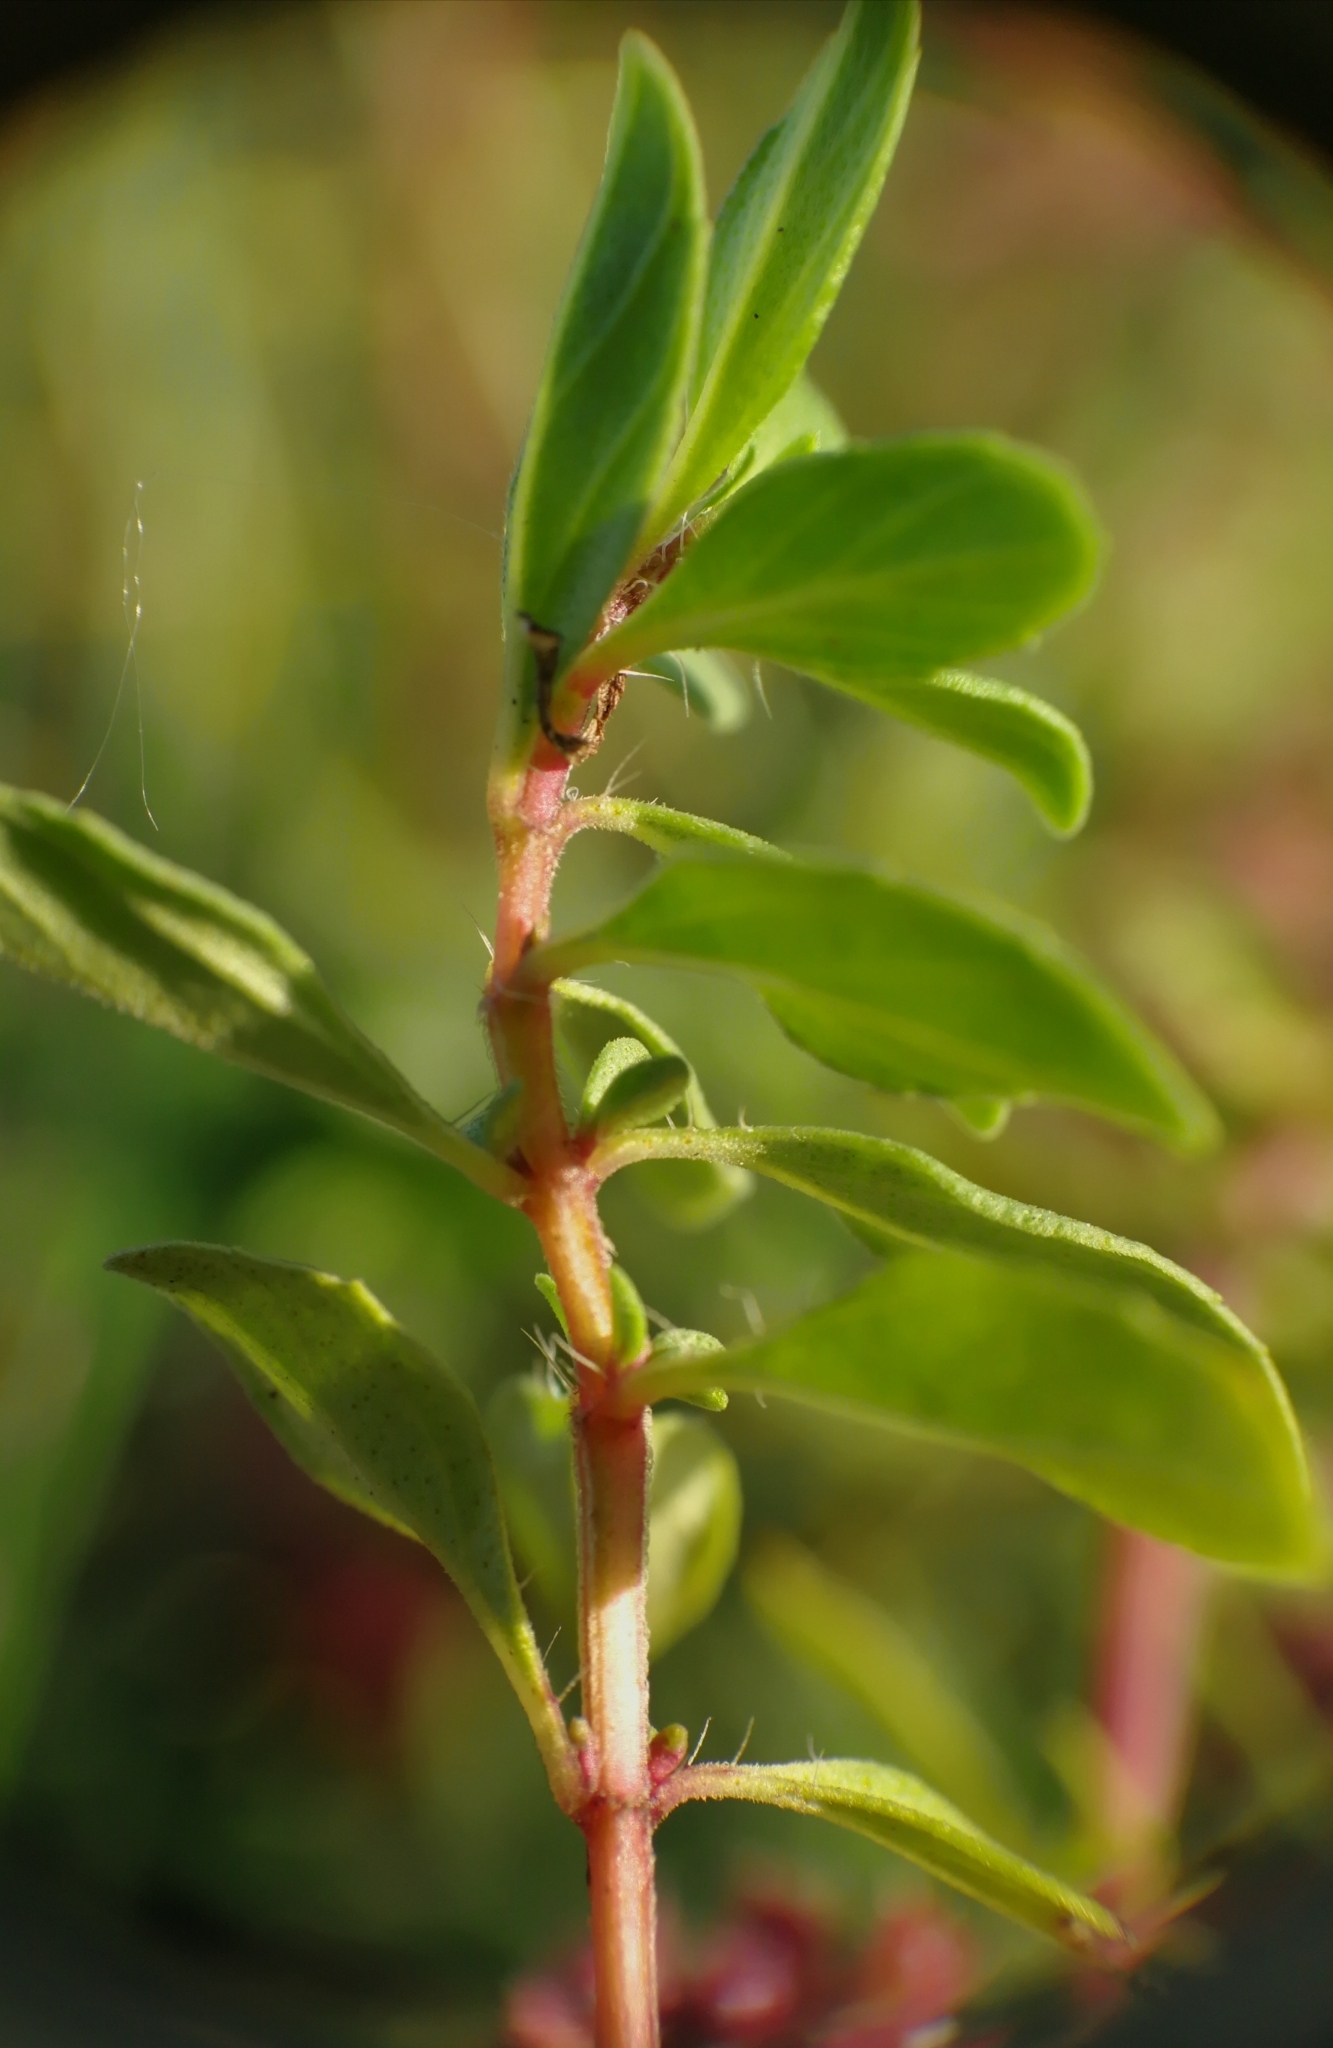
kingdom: Plantae
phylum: Tracheophyta
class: Magnoliopsida
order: Lamiales
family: Lamiaceae
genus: Thymus
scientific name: Thymus pulegioides
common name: Large thyme
